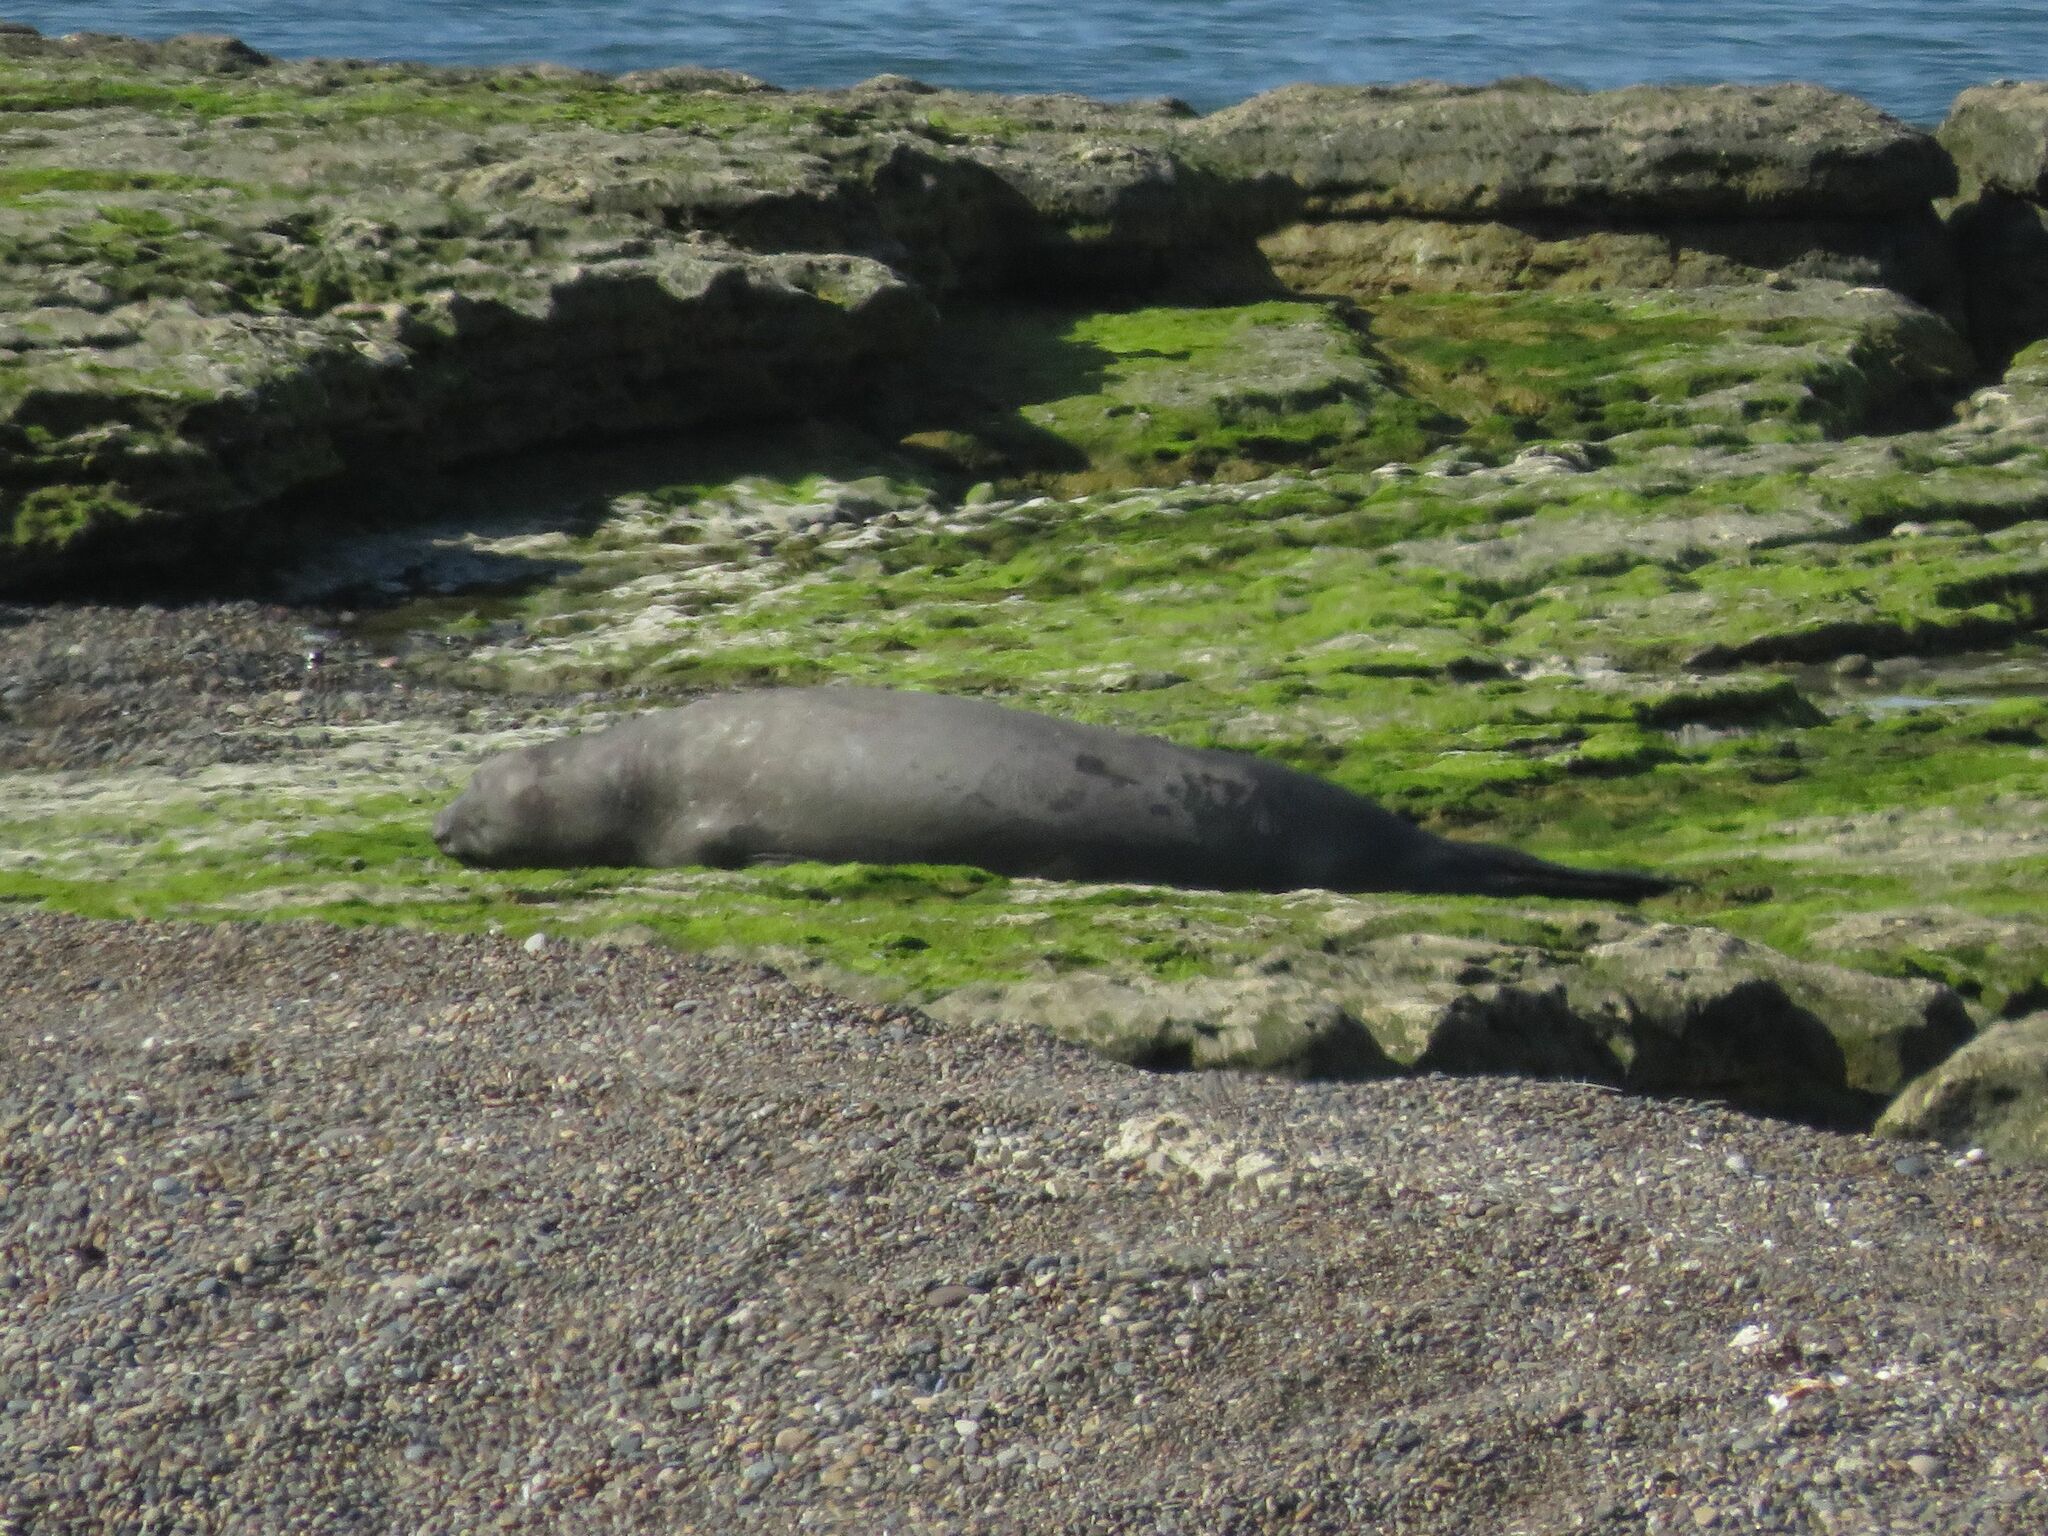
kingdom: Animalia
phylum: Chordata
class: Mammalia
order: Carnivora
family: Phocidae
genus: Mirounga
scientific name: Mirounga leonina
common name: Southern elephant seal
